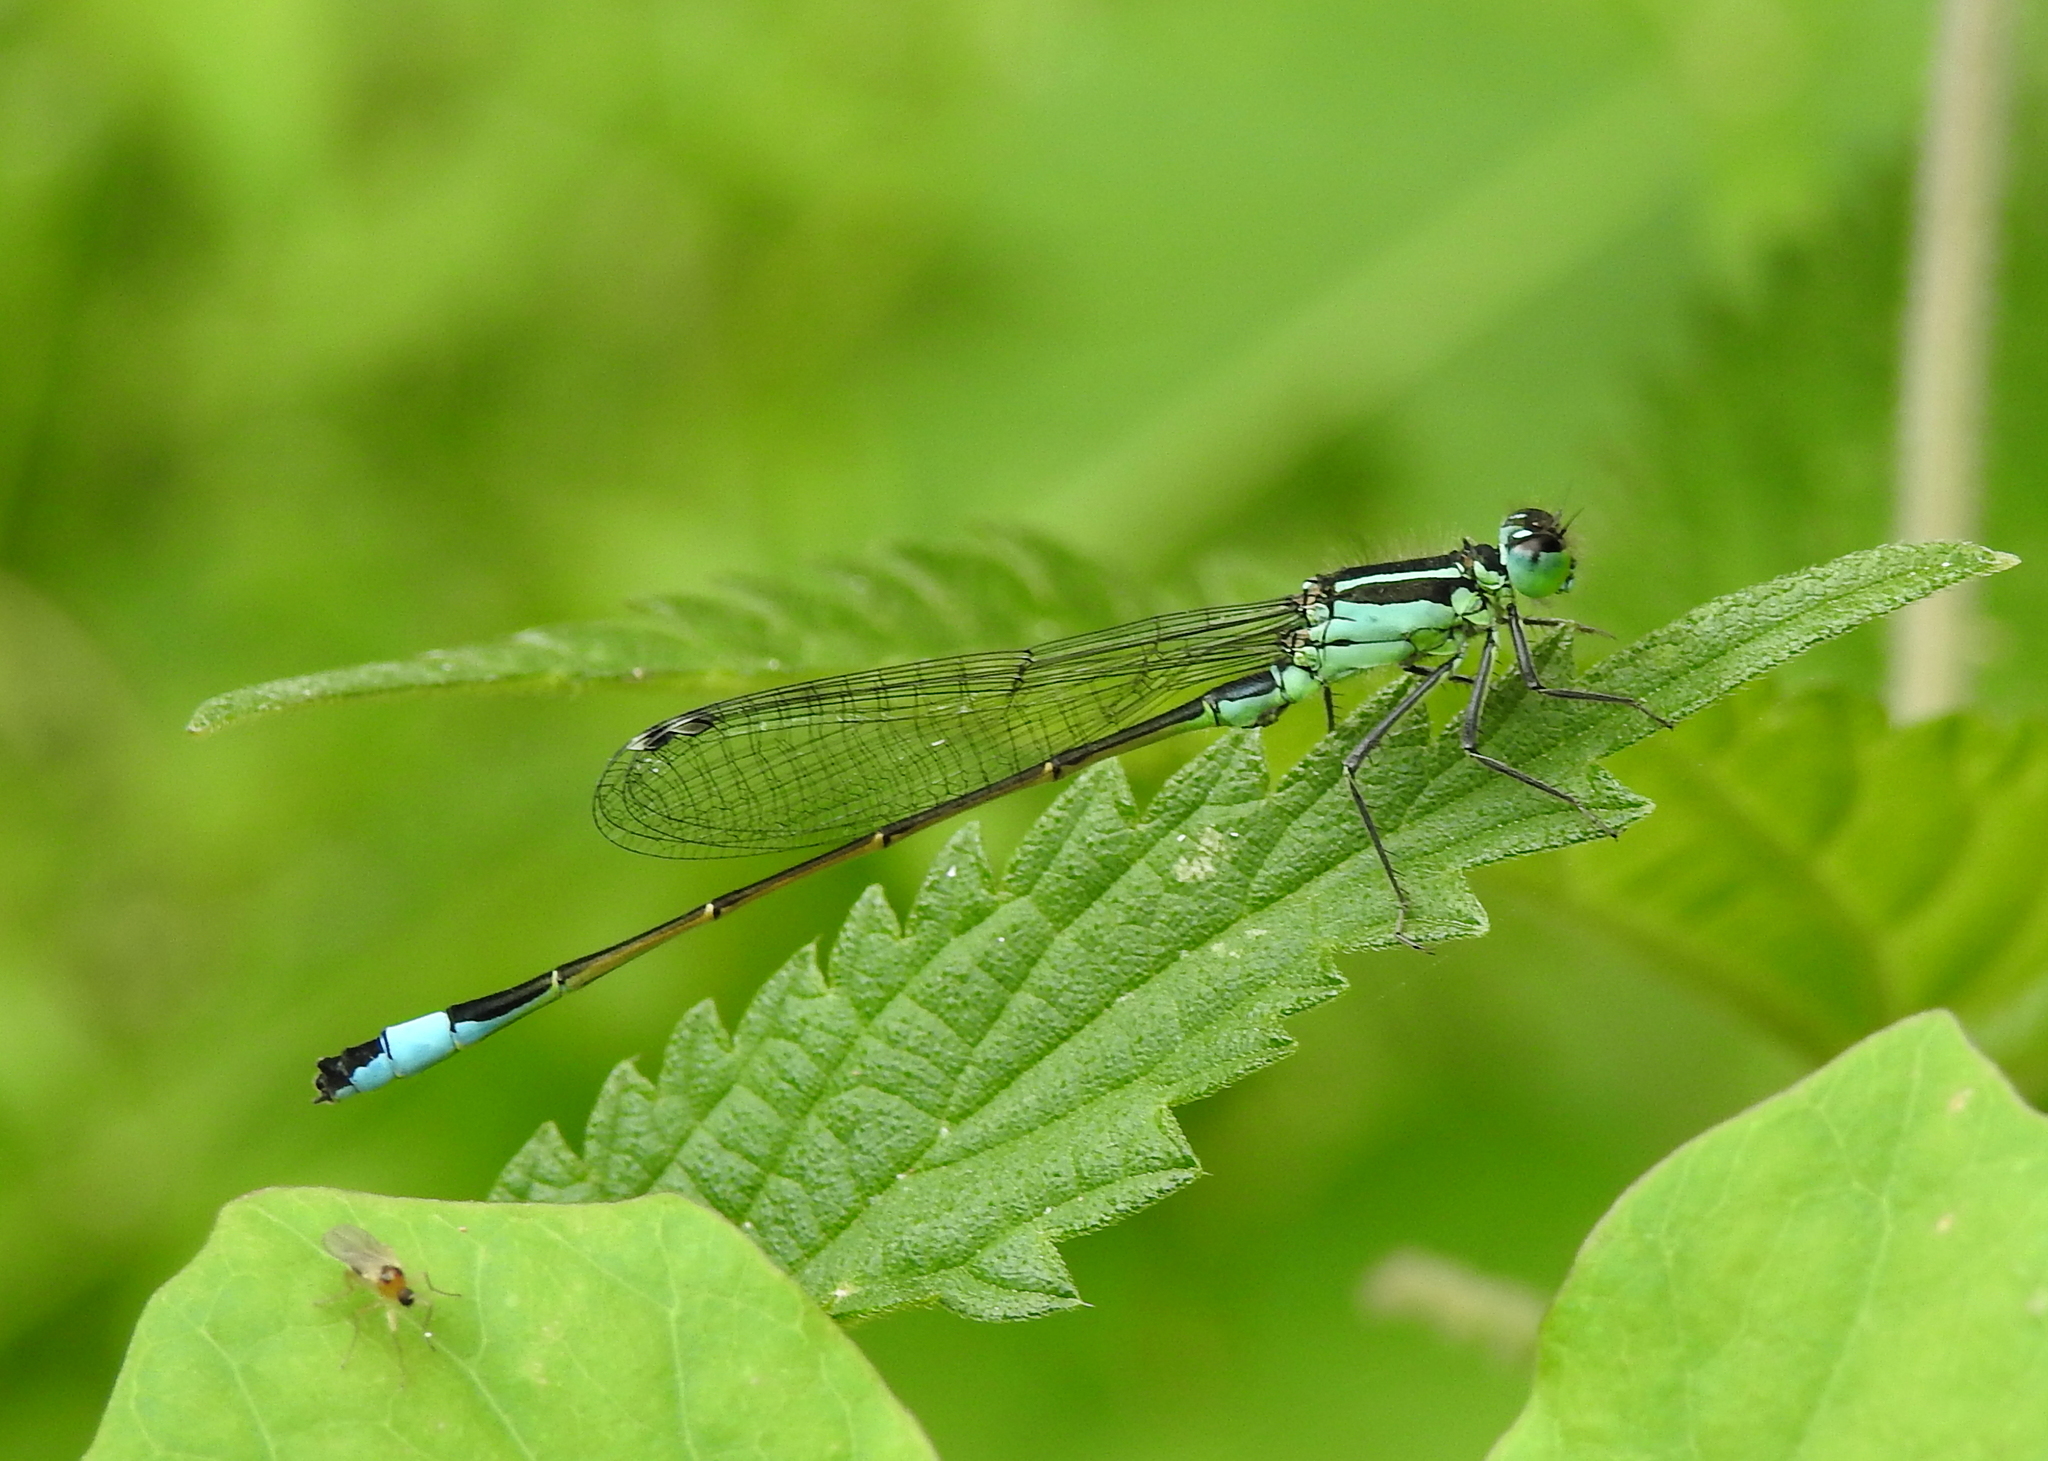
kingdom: Animalia
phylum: Arthropoda
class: Insecta
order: Odonata
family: Coenagrionidae
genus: Ischnura
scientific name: Ischnura elegans
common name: Blue-tailed damselfly
